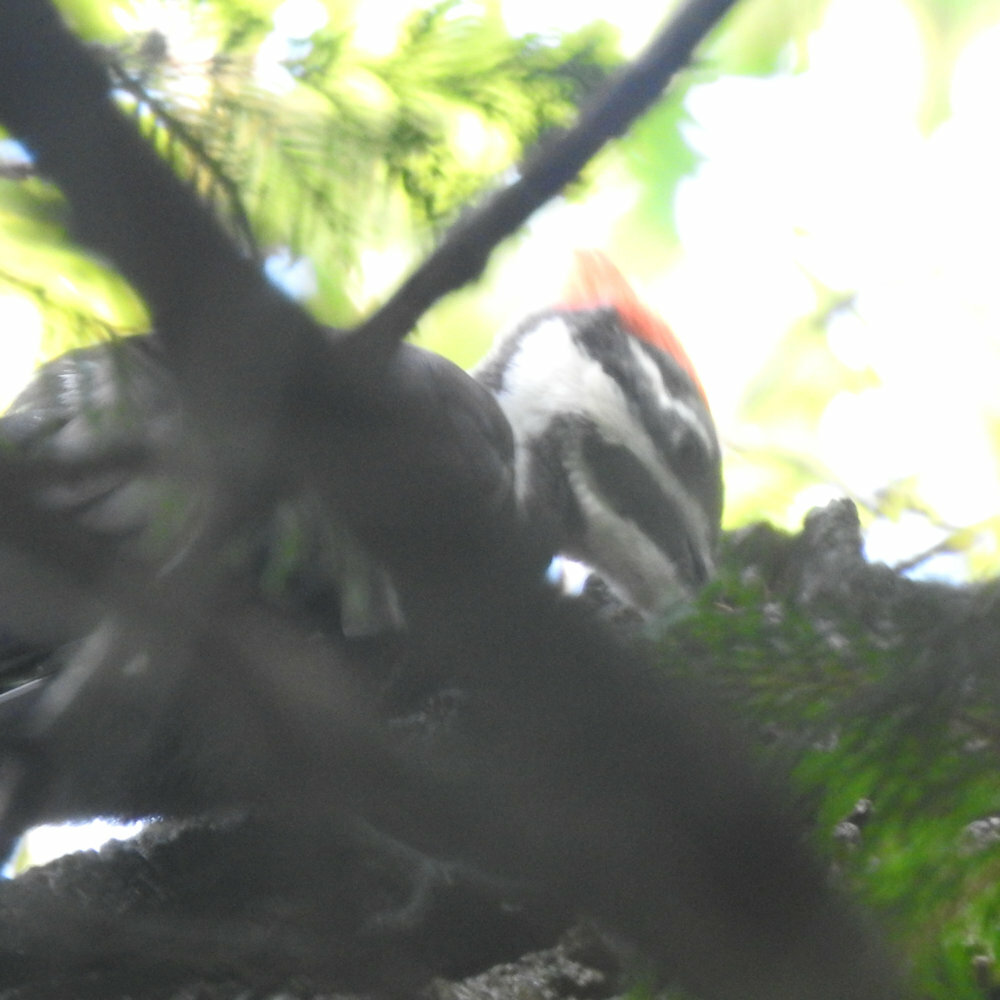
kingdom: Animalia
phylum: Chordata
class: Aves
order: Piciformes
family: Picidae
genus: Dryocopus
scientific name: Dryocopus pileatus
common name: Pileated woodpecker
